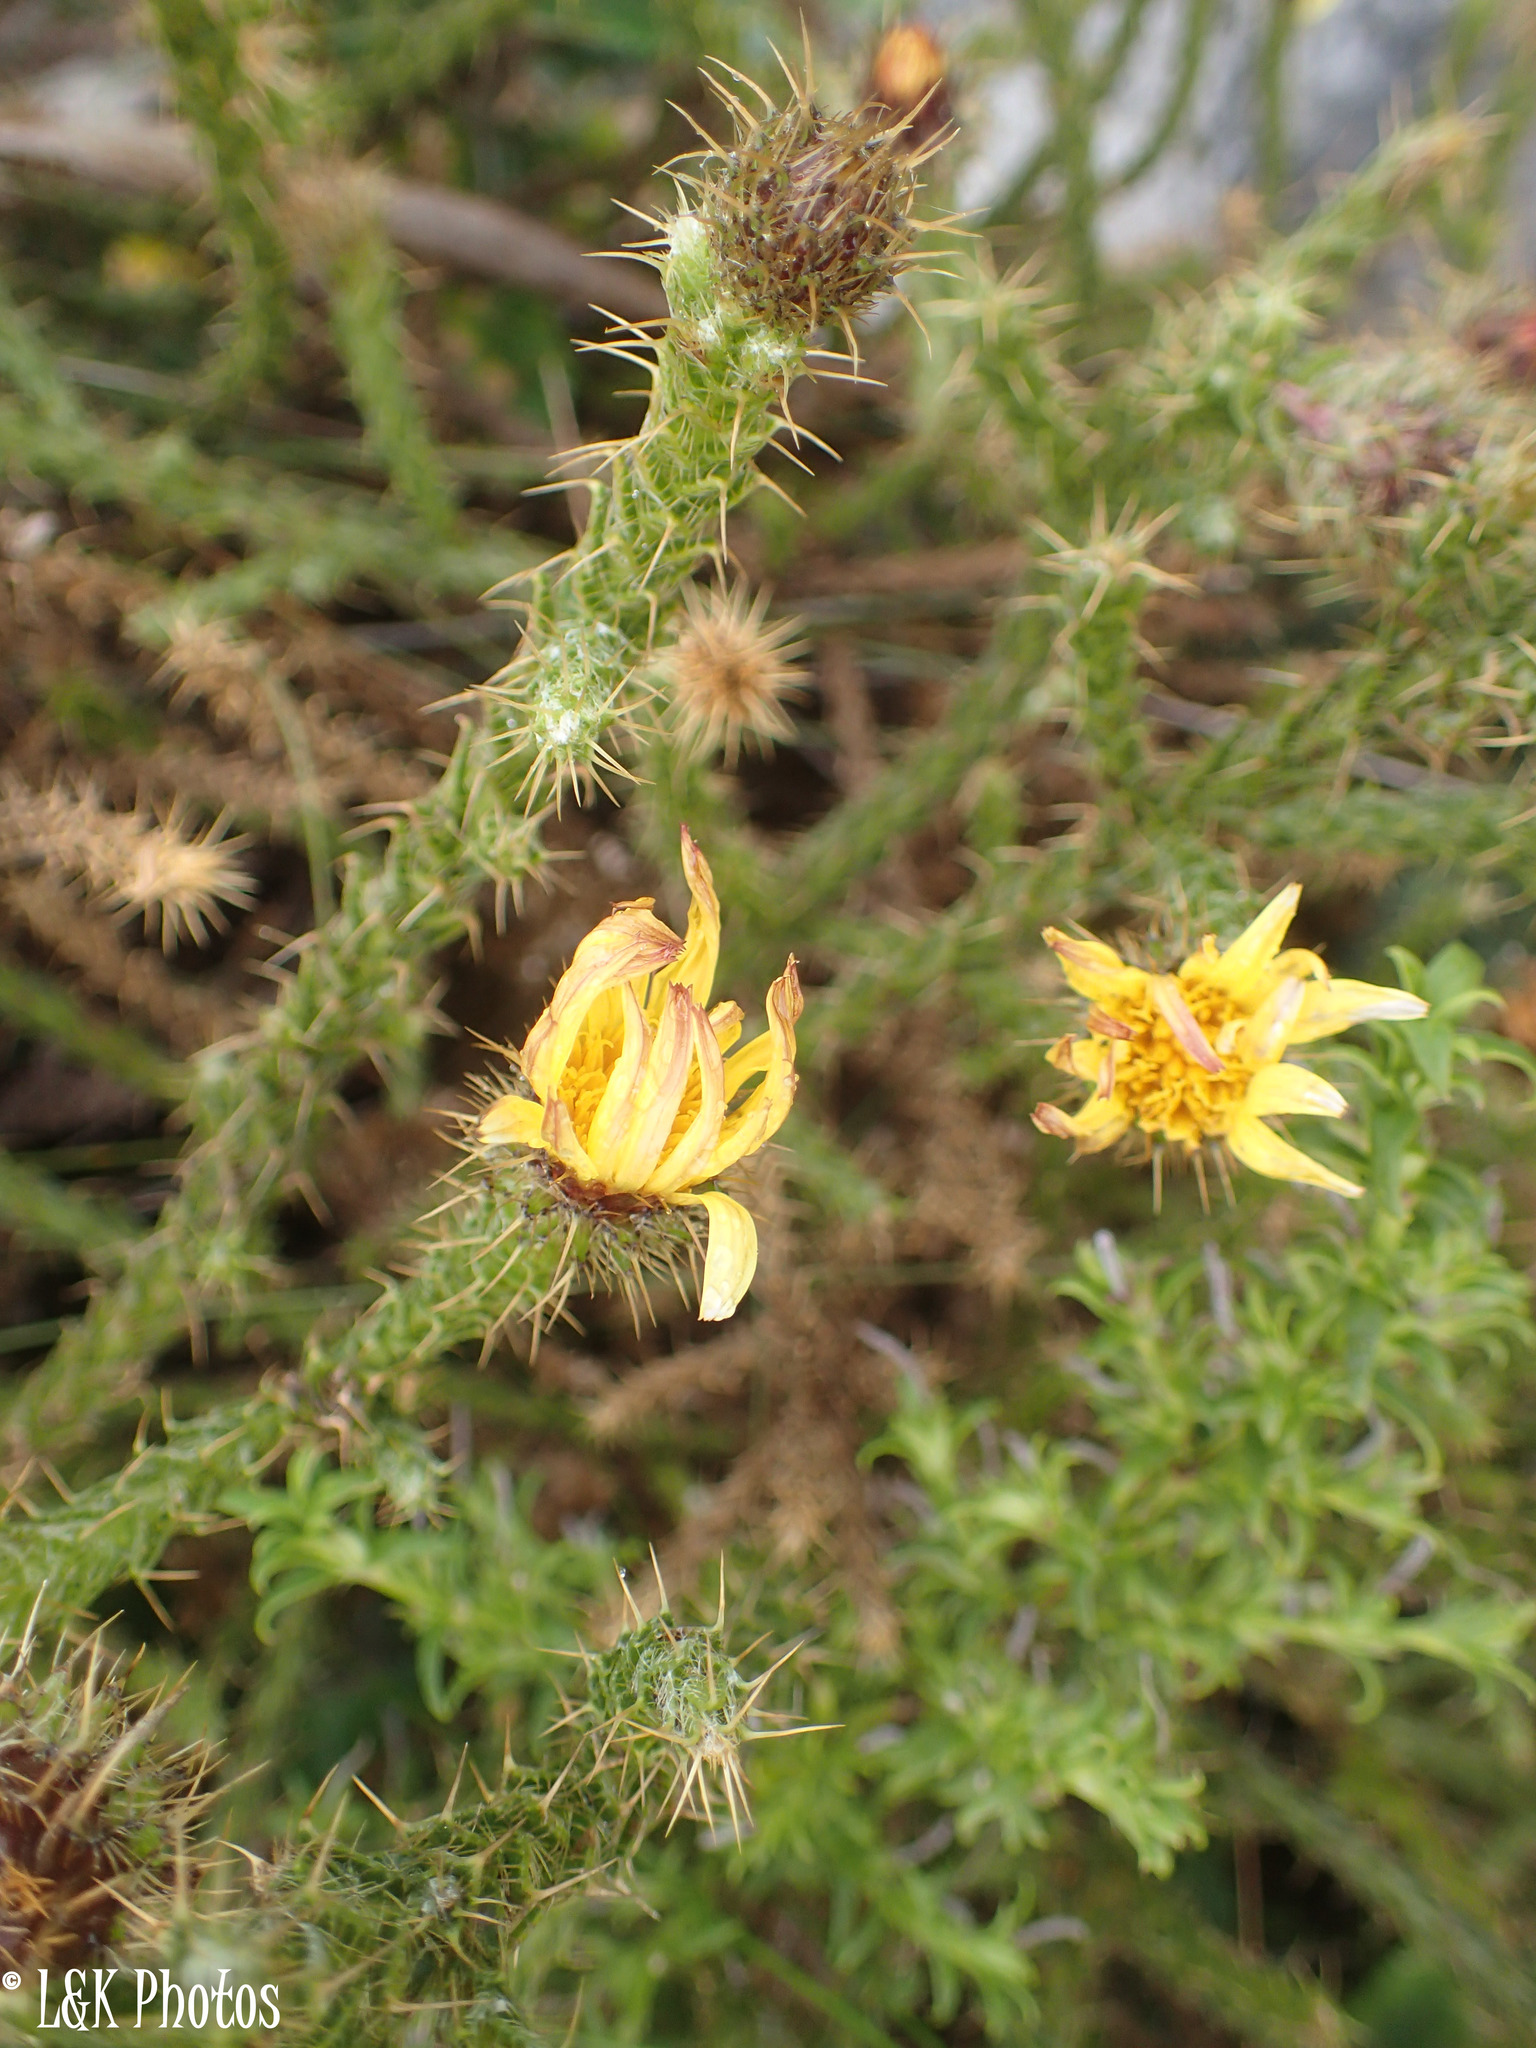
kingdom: Plantae
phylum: Tracheophyta
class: Magnoliopsida
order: Asterales
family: Asteraceae
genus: Cullumia
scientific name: Cullumia reticulata
